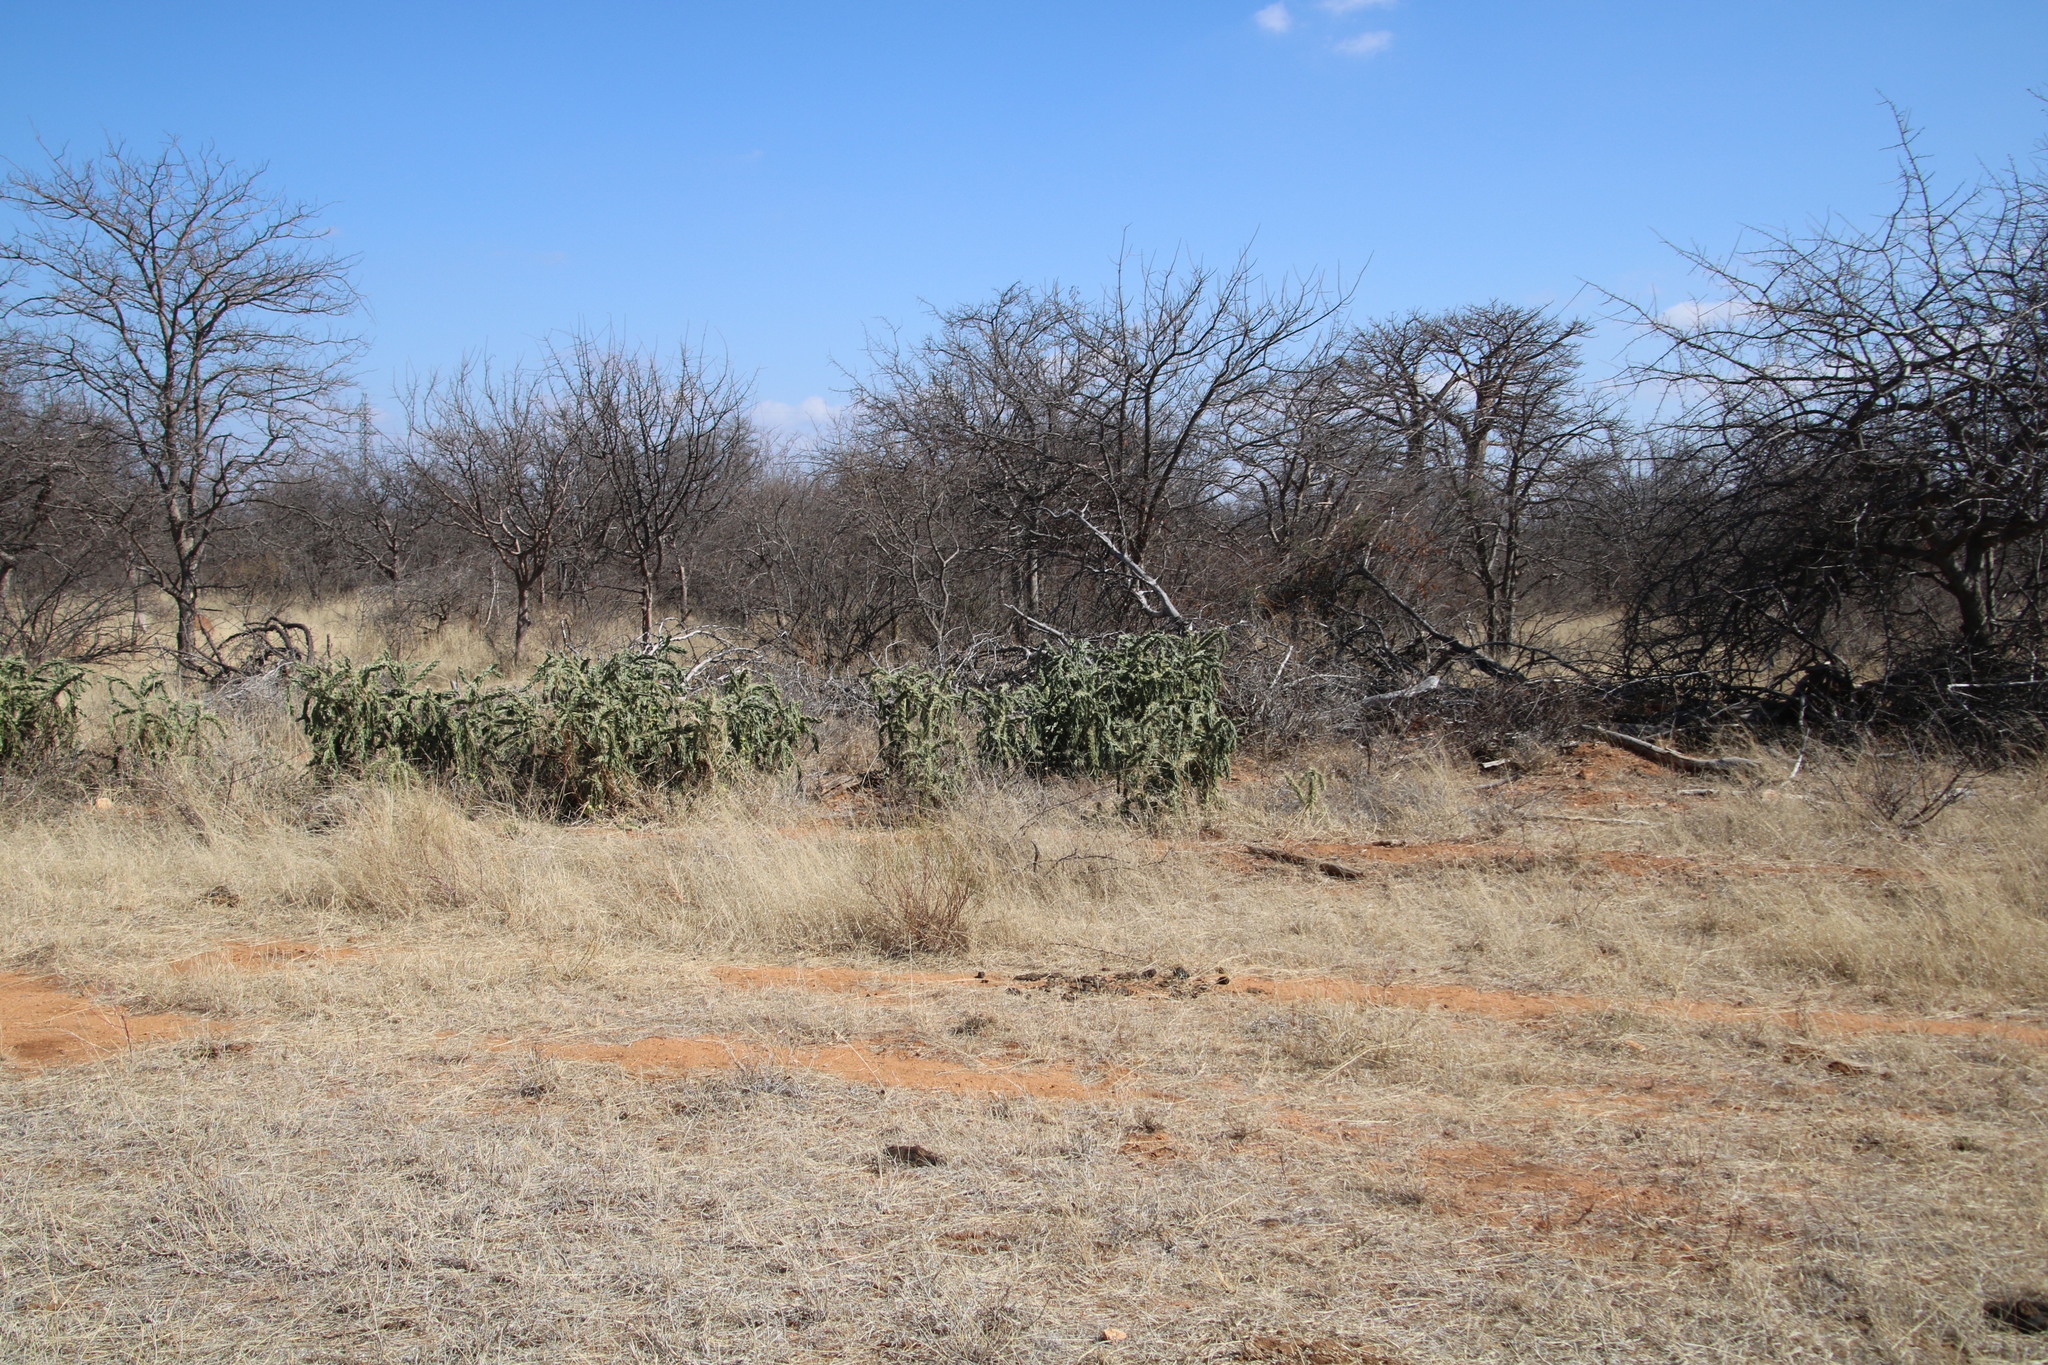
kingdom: Plantae
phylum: Tracheophyta
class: Magnoliopsida
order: Caryophyllales
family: Cactaceae
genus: Cylindropuntia
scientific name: Cylindropuntia imbricata
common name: Candelabrum cactus
